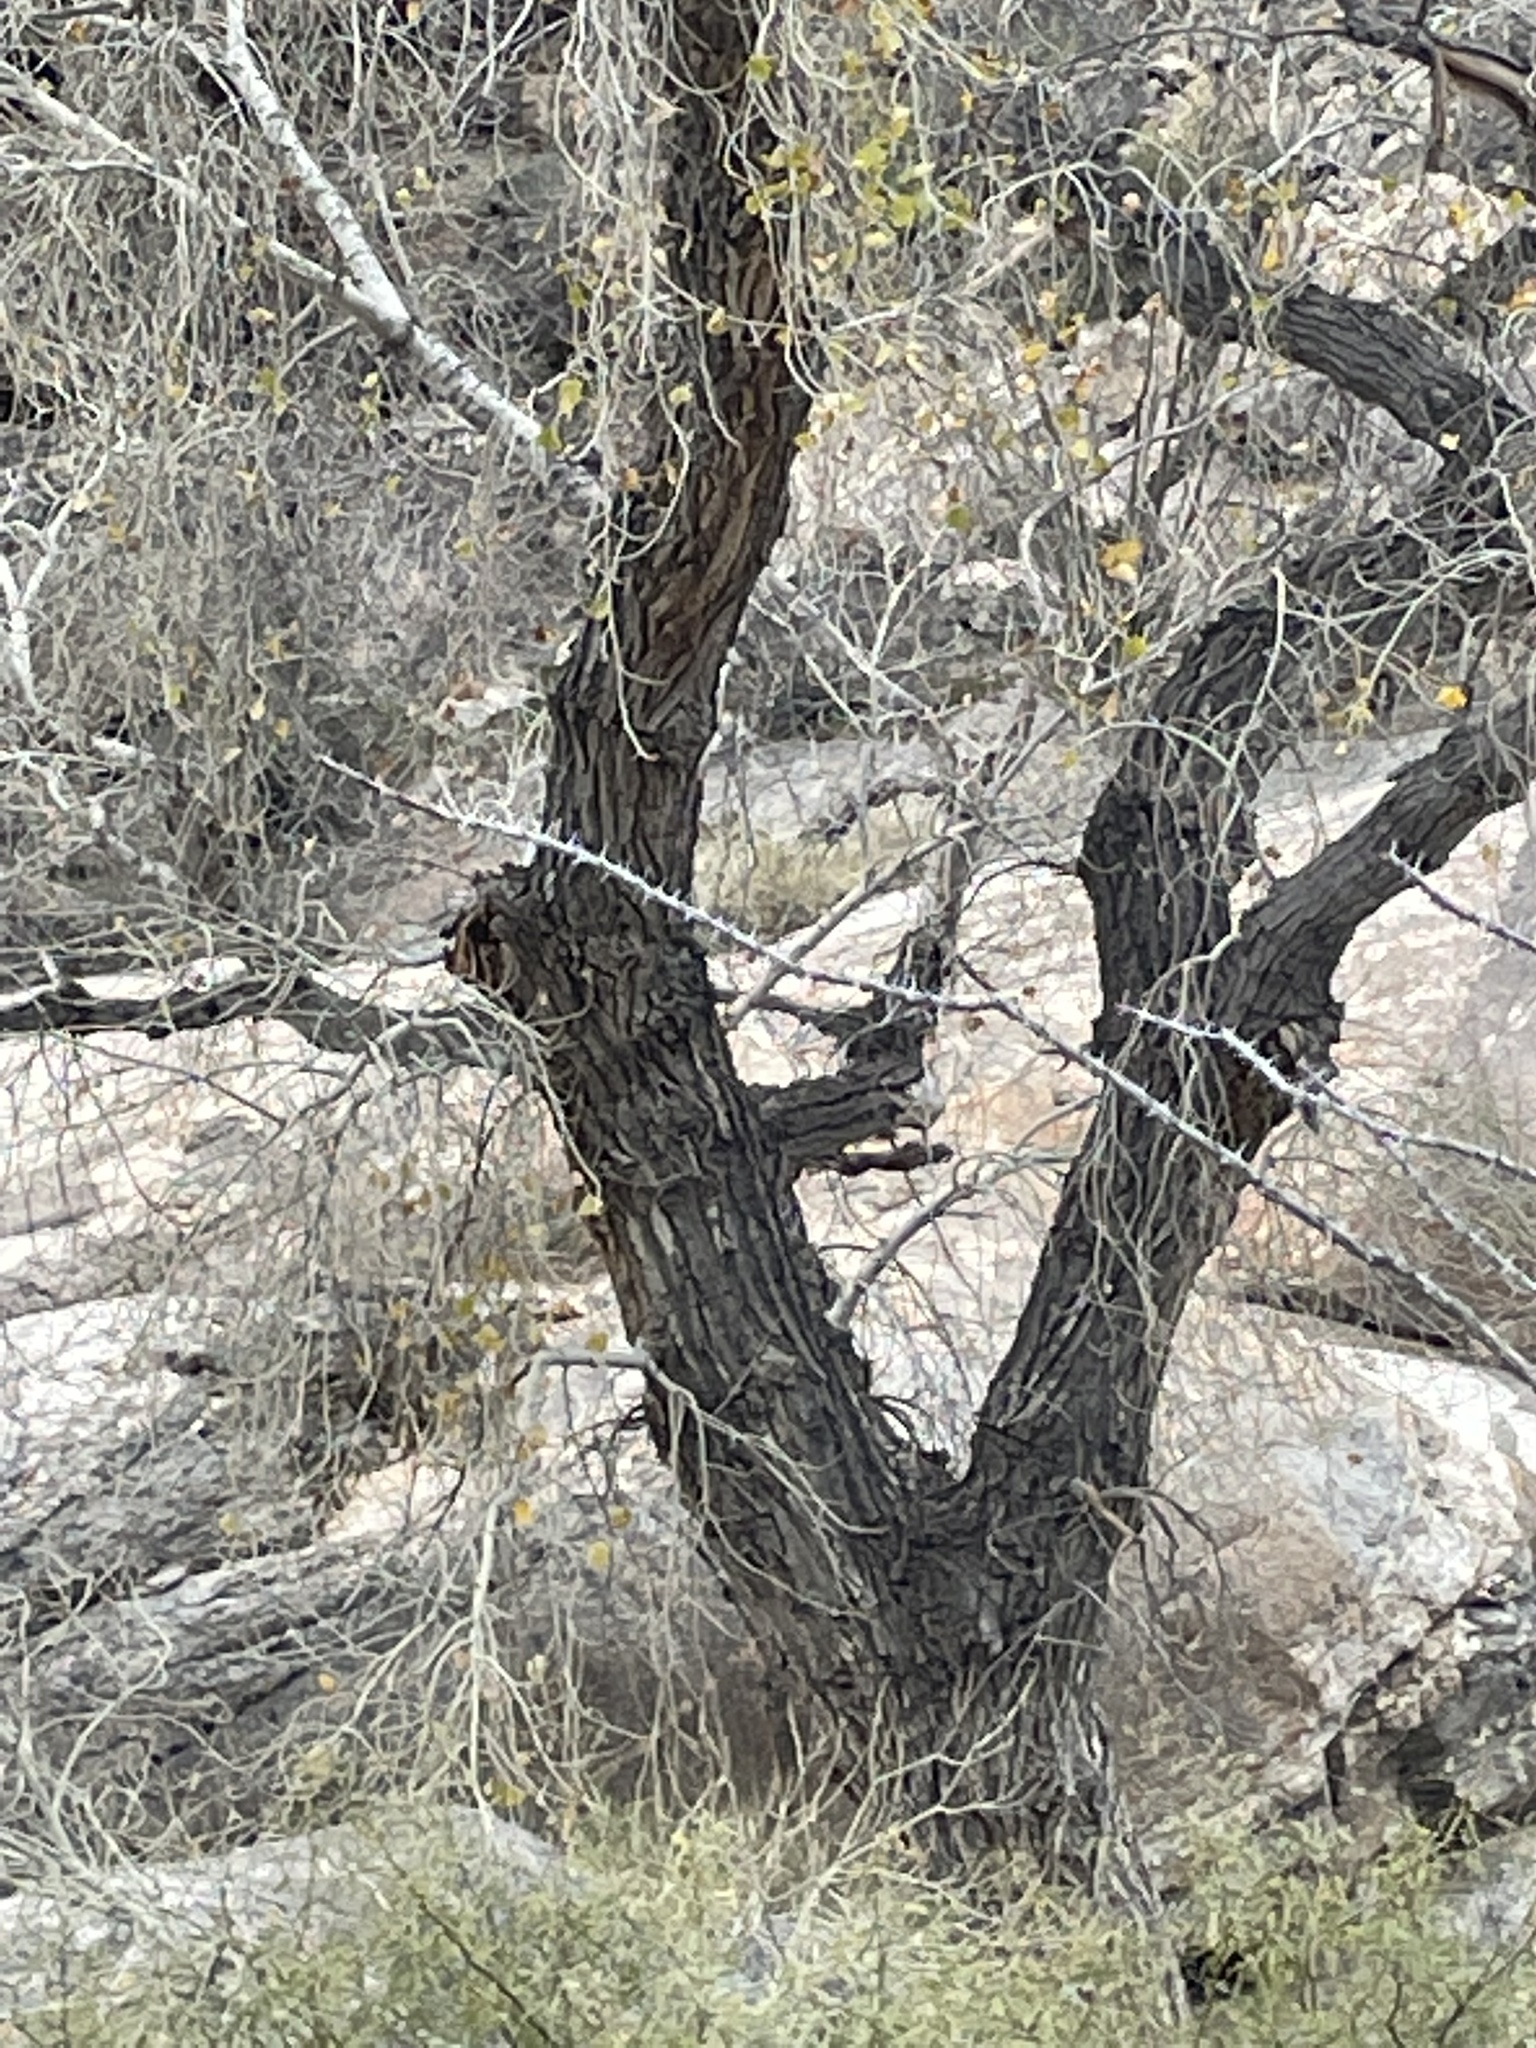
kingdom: Plantae
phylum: Tracheophyta
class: Magnoliopsida
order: Malpighiales
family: Salicaceae
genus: Populus
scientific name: Populus fremontii
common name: Fremont's cottonwood
